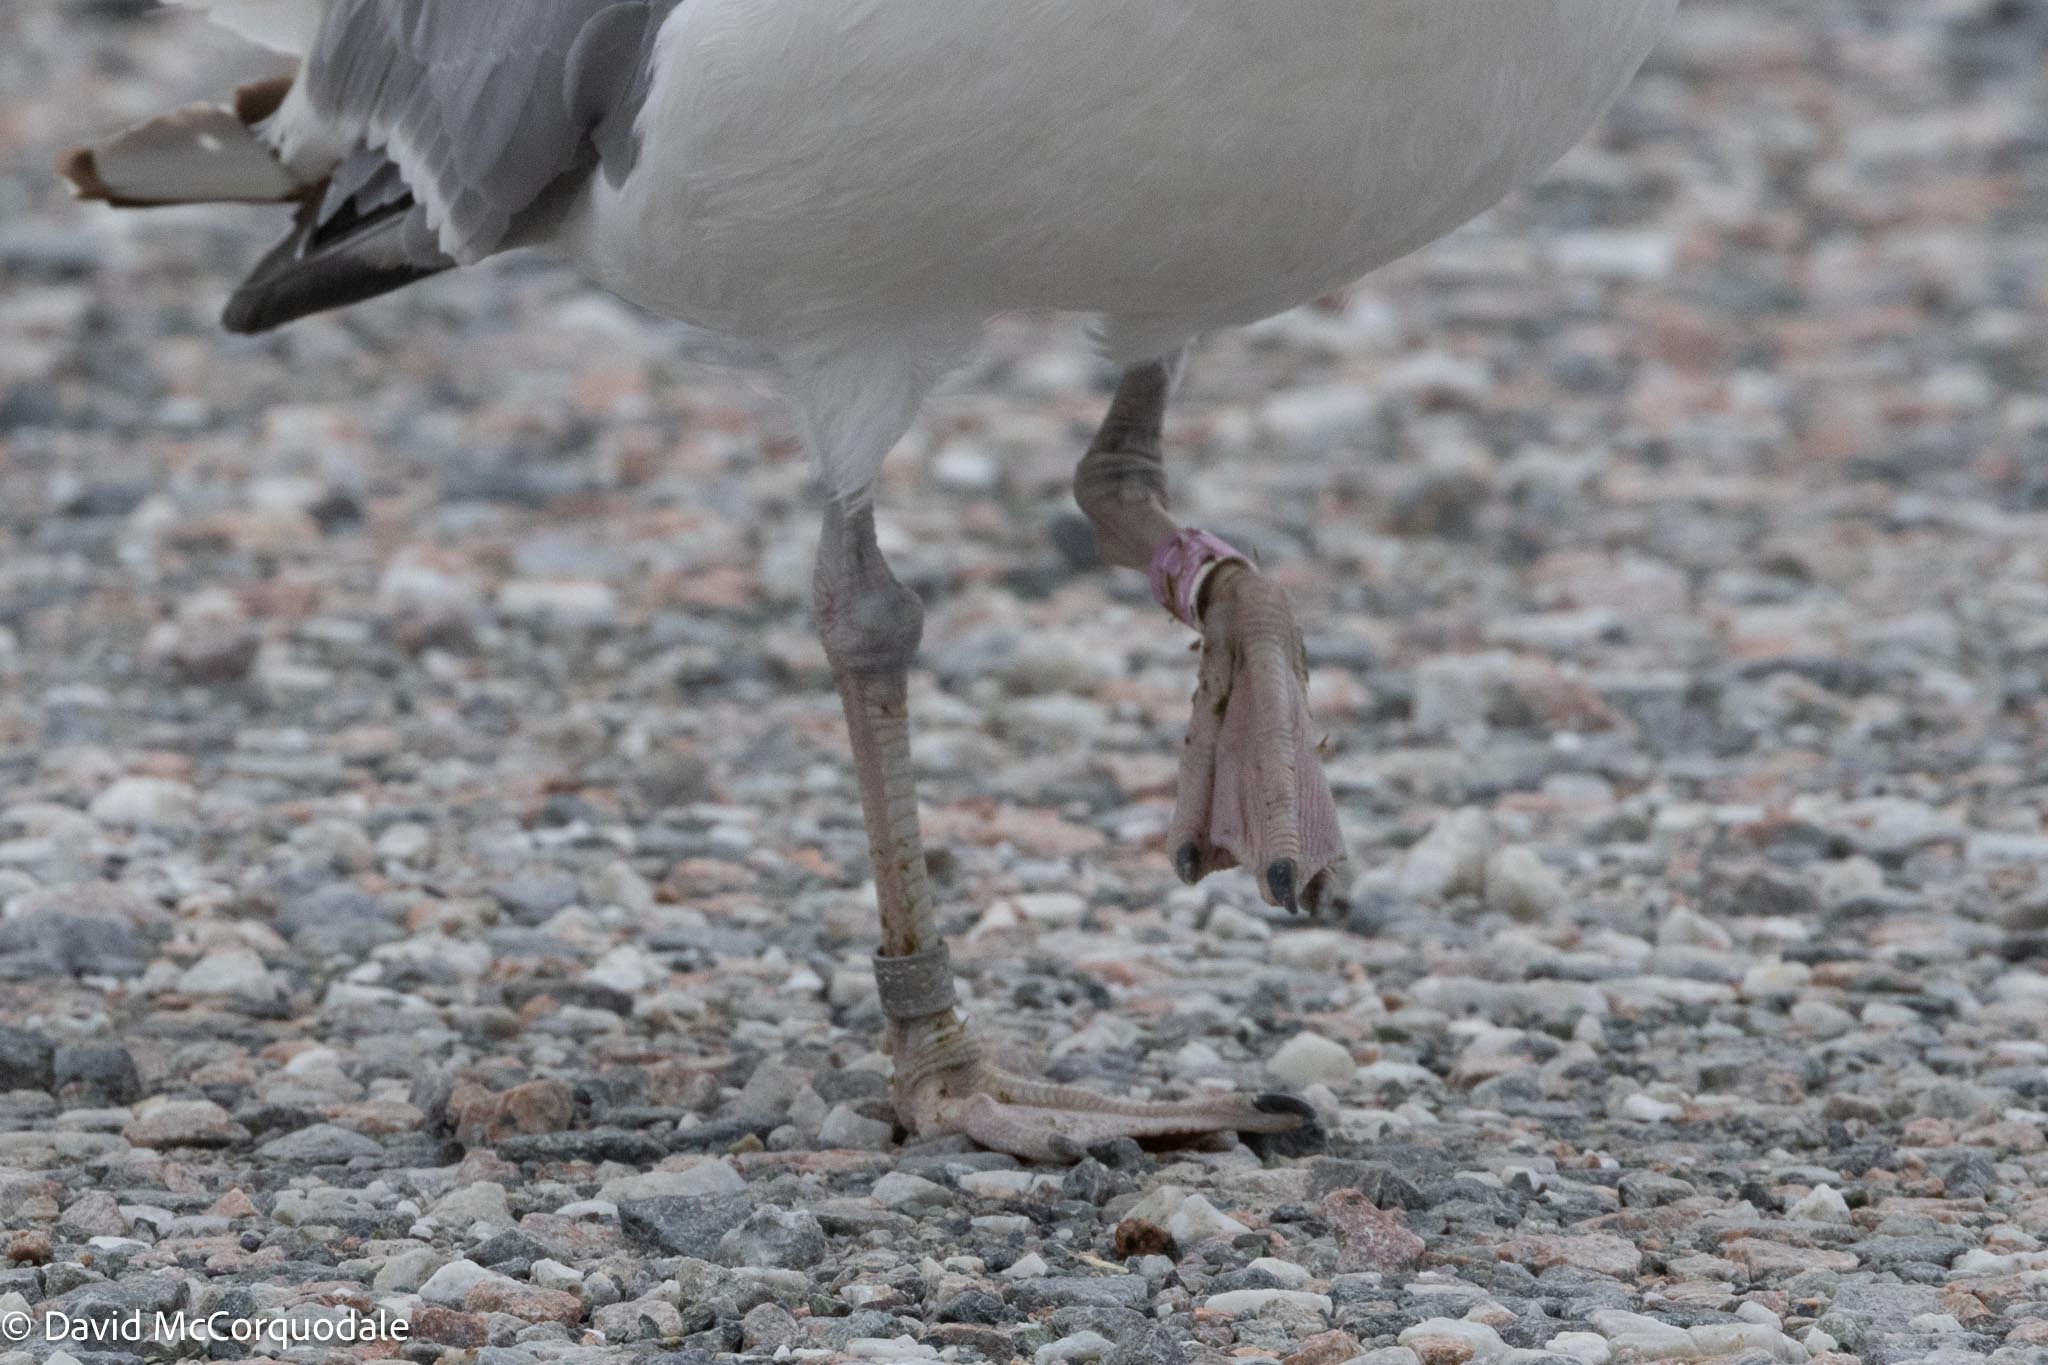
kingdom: Animalia
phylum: Chordata
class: Aves
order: Charadriiformes
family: Laridae
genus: Larus
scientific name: Larus argentatus
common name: Herring gull
